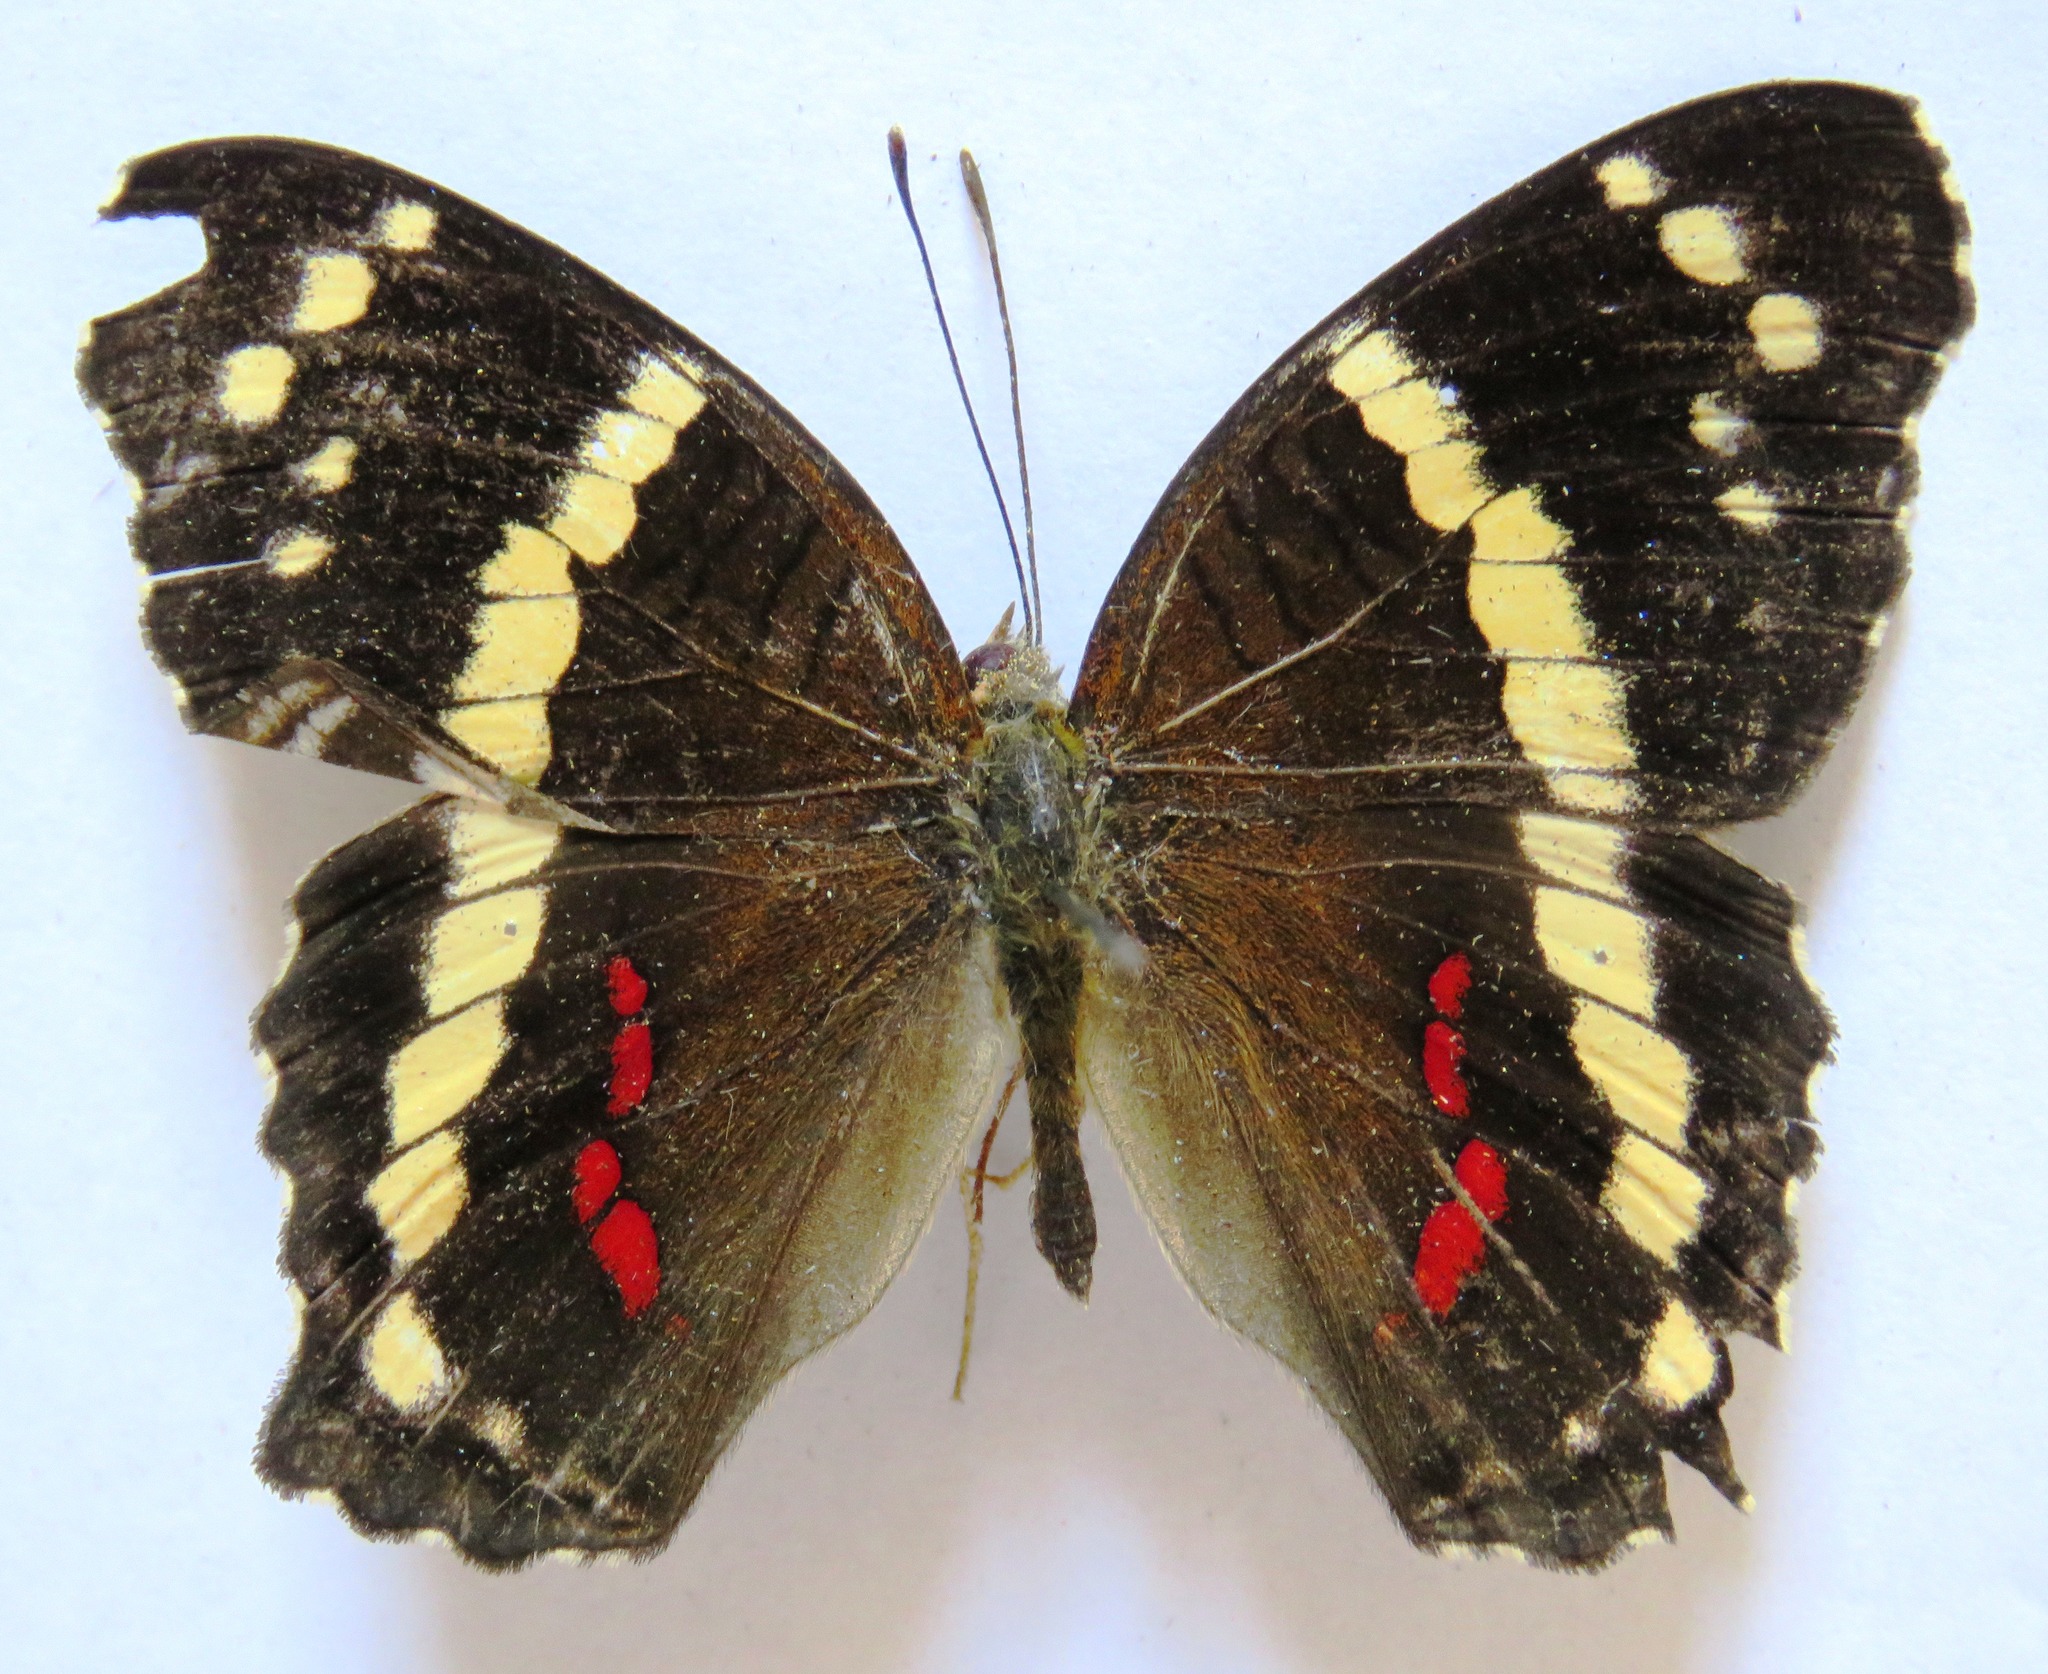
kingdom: Animalia
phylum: Arthropoda
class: Insecta
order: Lepidoptera
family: Nymphalidae
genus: Anartia
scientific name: Anartia fatima
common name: Banded peacock
